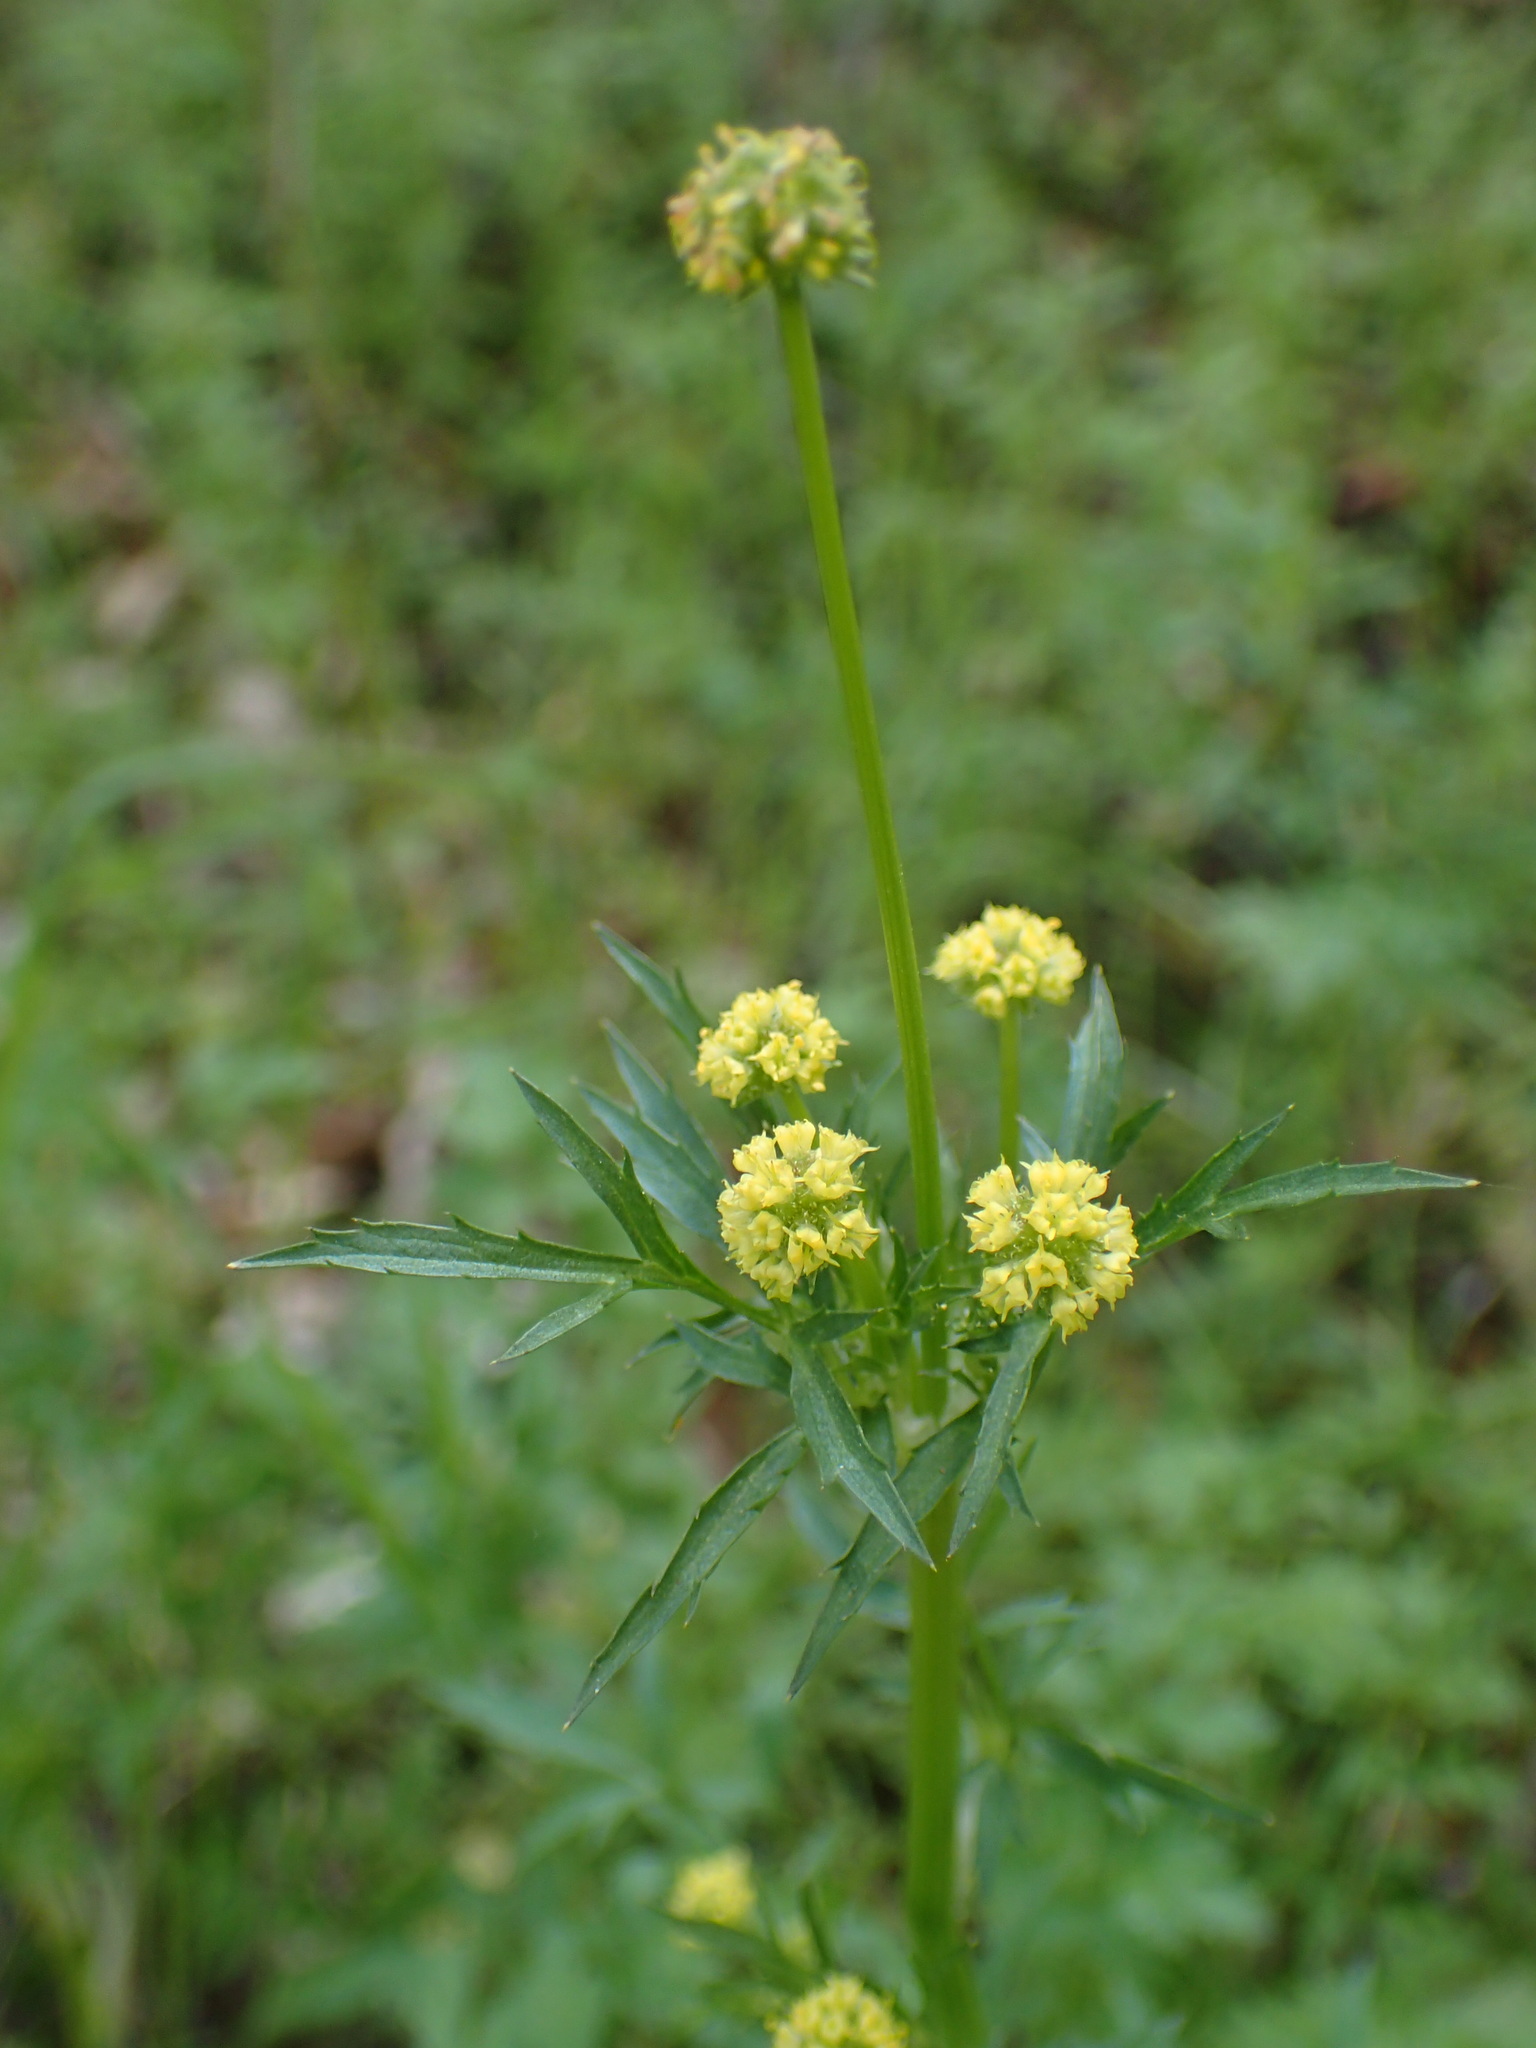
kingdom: Plantae
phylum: Tracheophyta
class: Magnoliopsida
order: Apiales
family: Apiaceae
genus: Sanicula
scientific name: Sanicula bipinnata
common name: Poison sanicle
